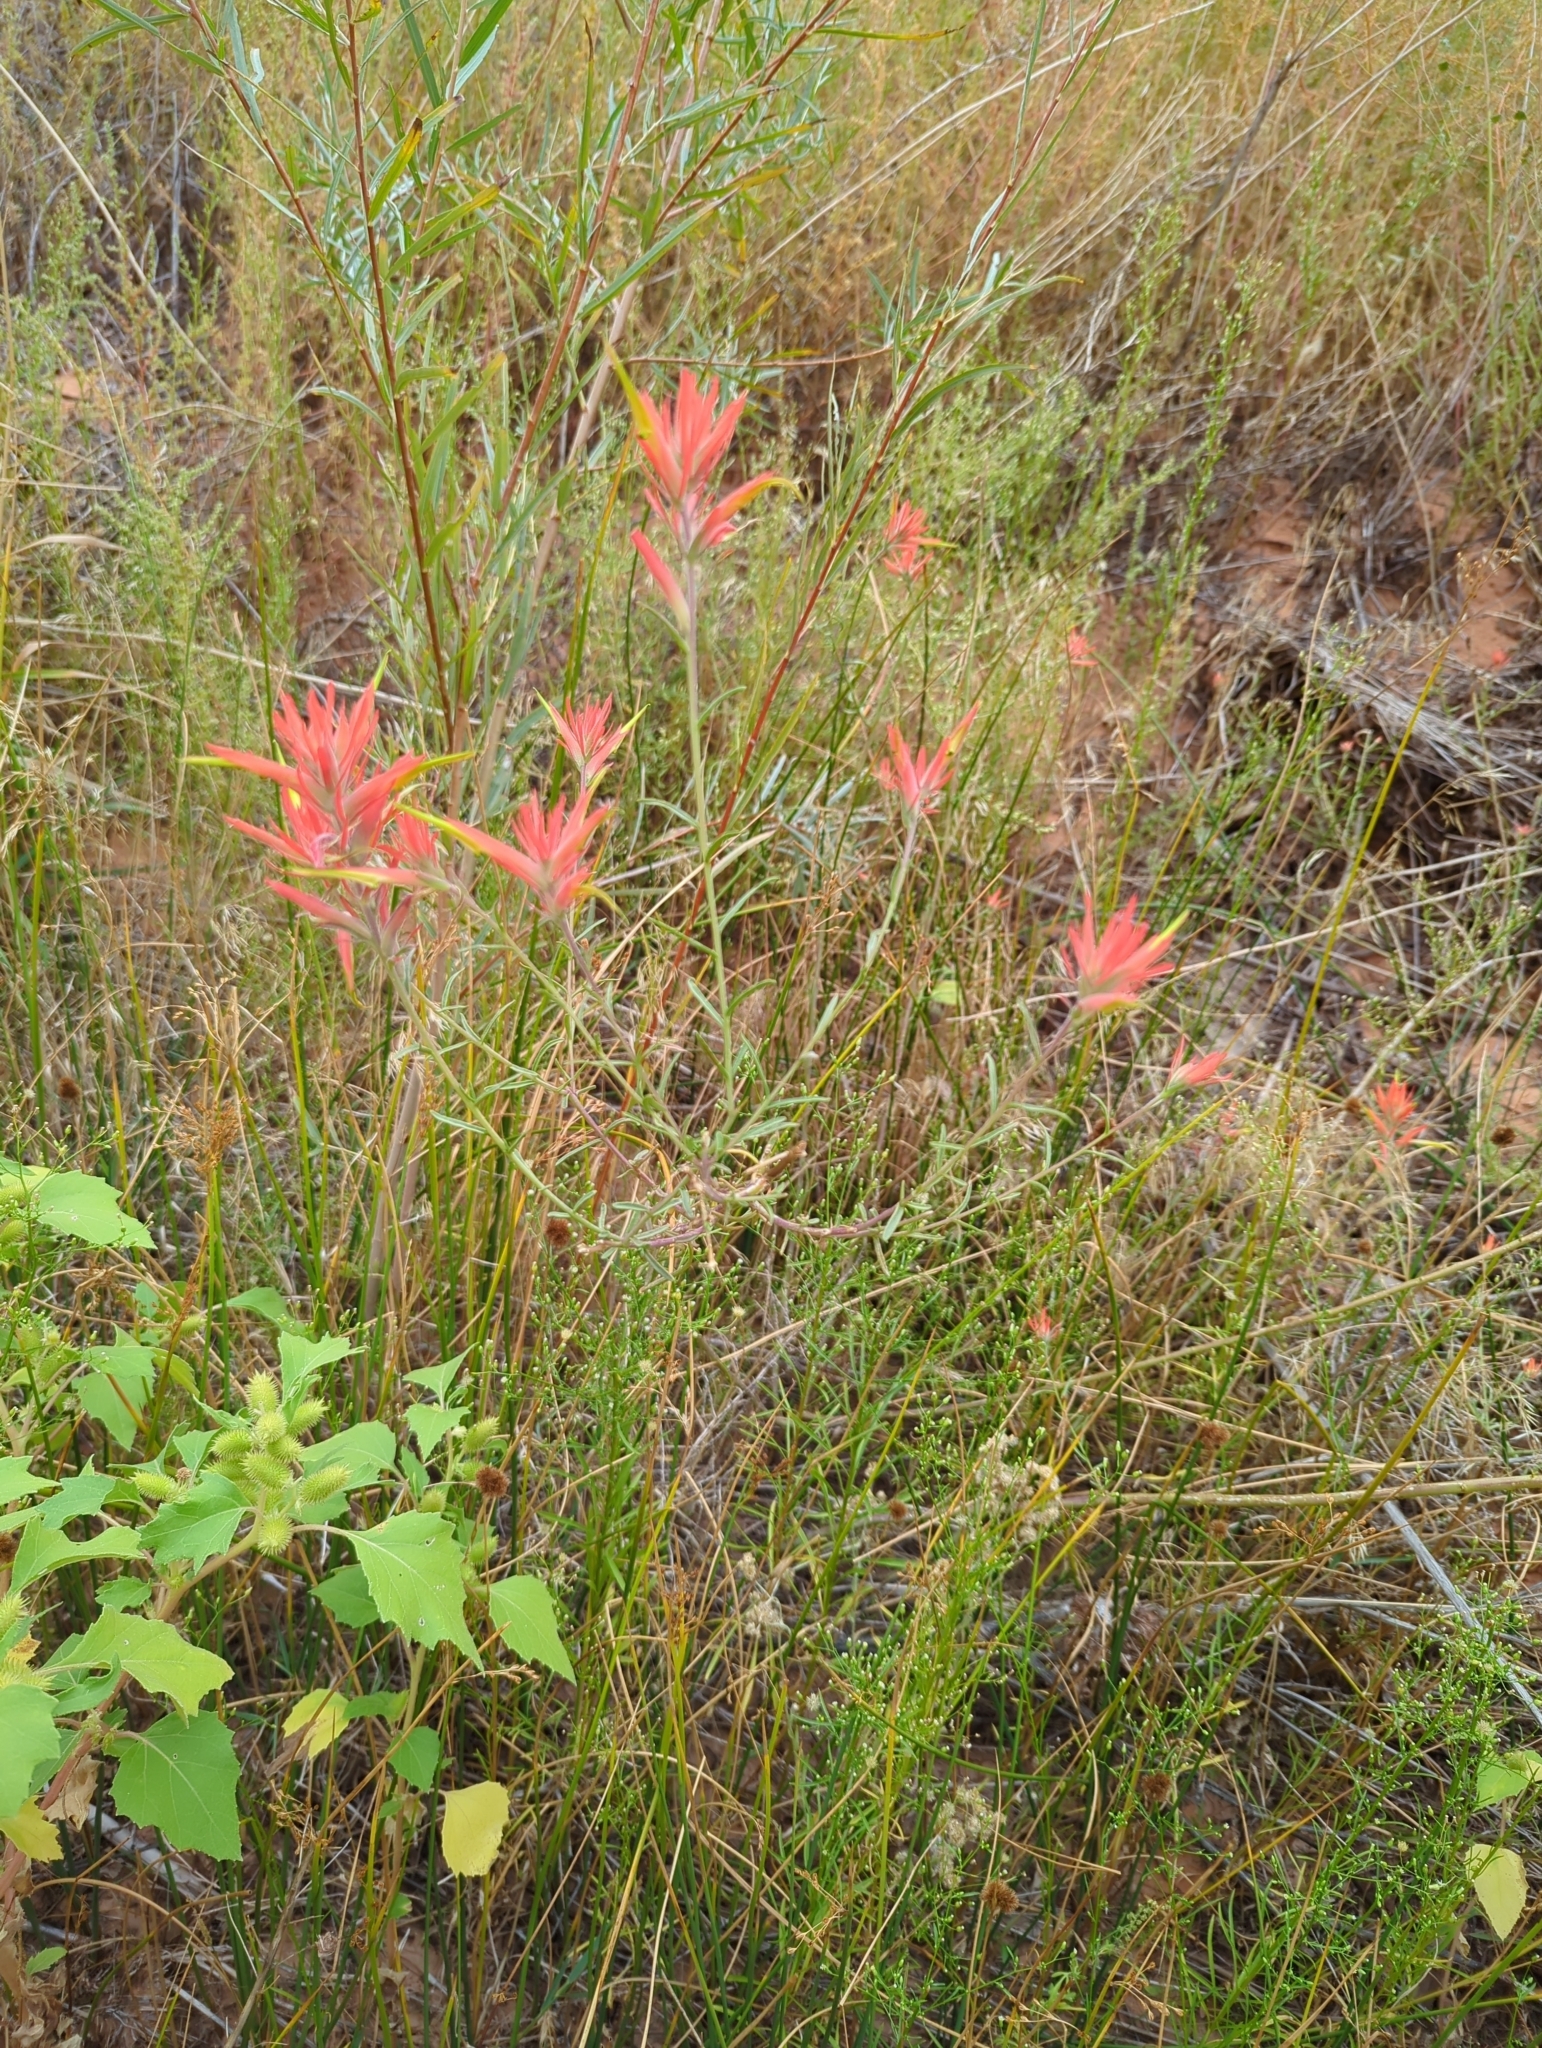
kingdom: Plantae
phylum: Tracheophyta
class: Magnoliopsida
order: Lamiales
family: Orobanchaceae
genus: Castilleja
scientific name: Castilleja linariifolia
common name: Wyoming paintbrush
